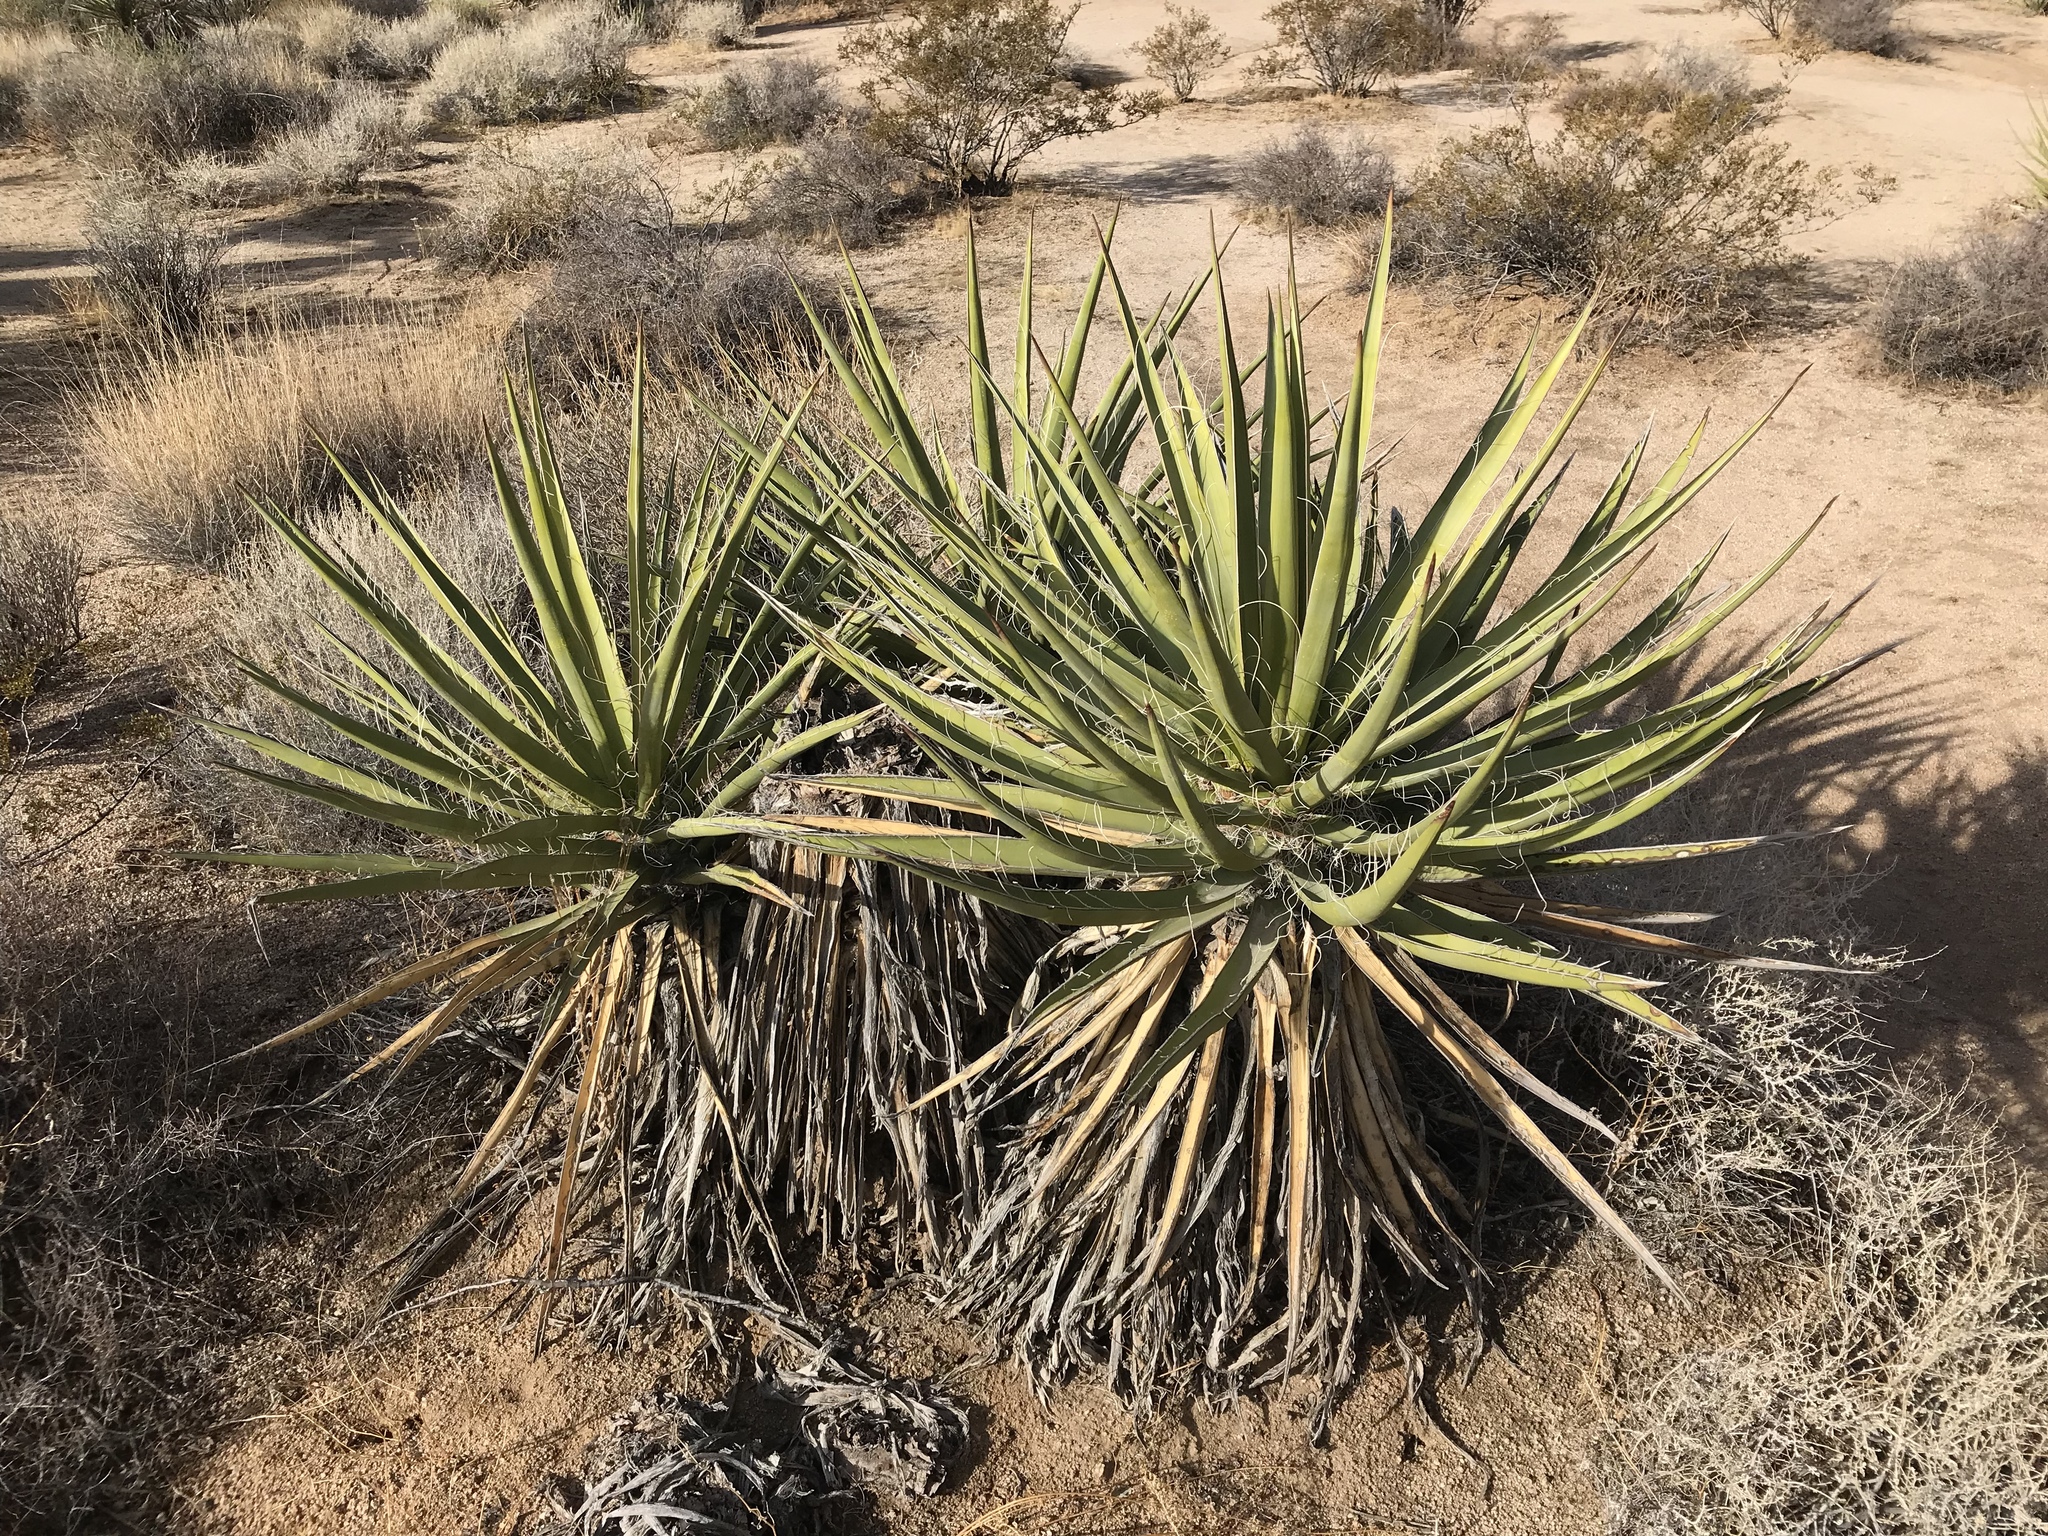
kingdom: Plantae
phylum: Tracheophyta
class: Liliopsida
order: Asparagales
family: Asparagaceae
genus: Yucca
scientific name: Yucca schidigera
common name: Mojave yucca
